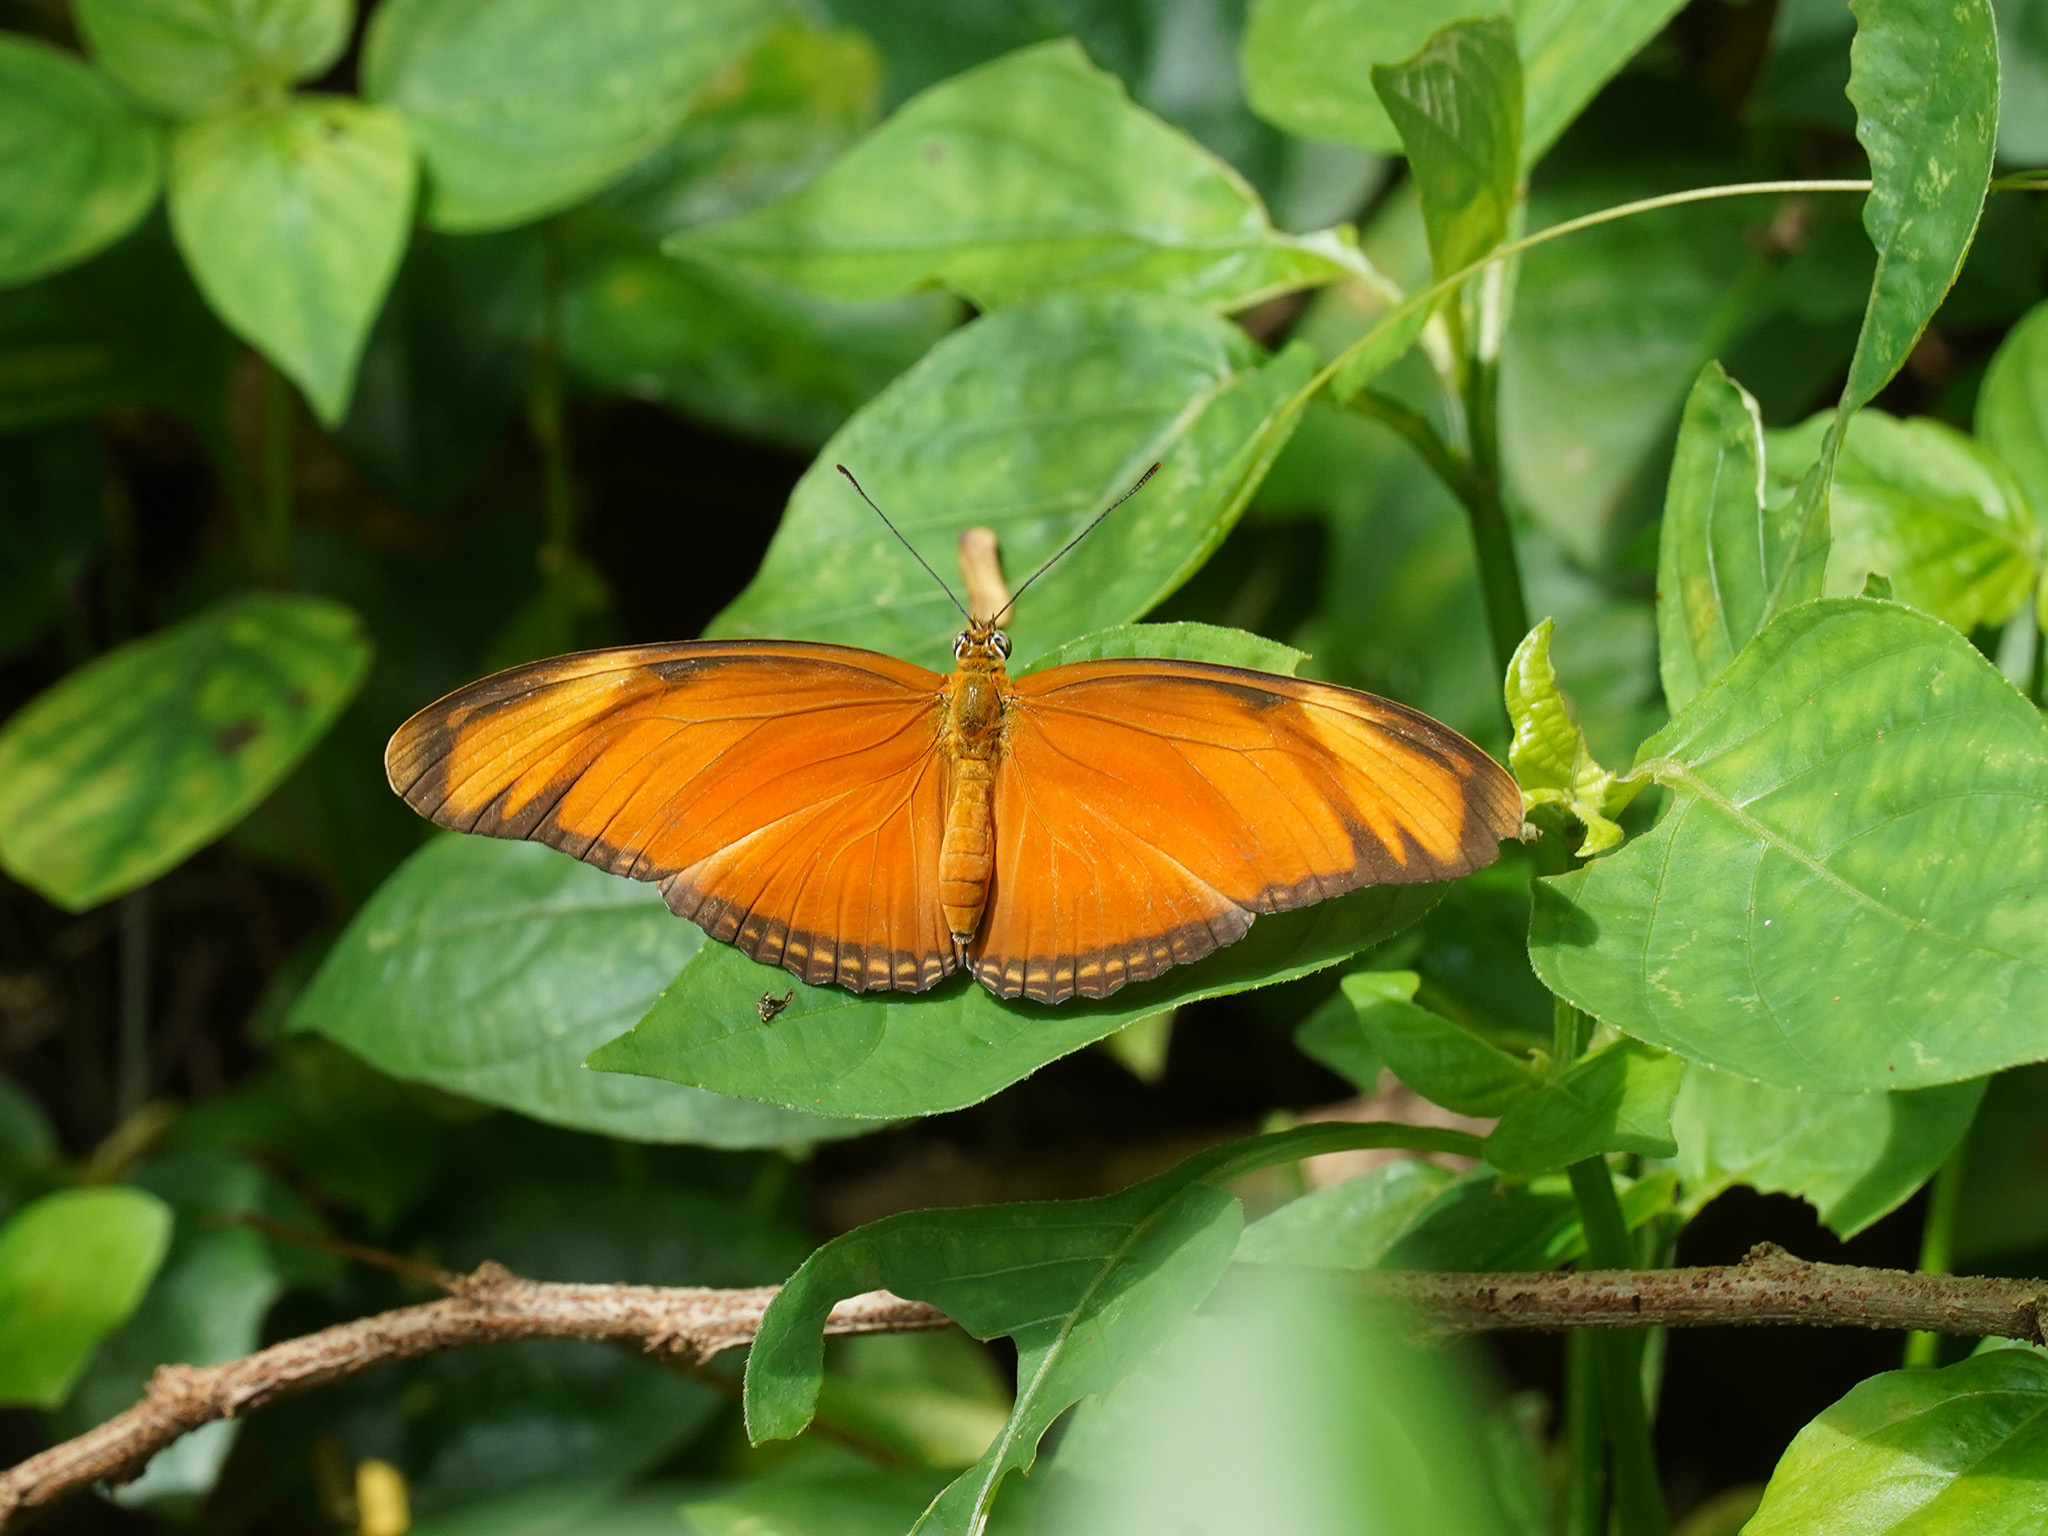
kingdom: Animalia
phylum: Arthropoda
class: Insecta
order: Lepidoptera
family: Nymphalidae
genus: Dryas
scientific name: Dryas iulia
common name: Flambeau
